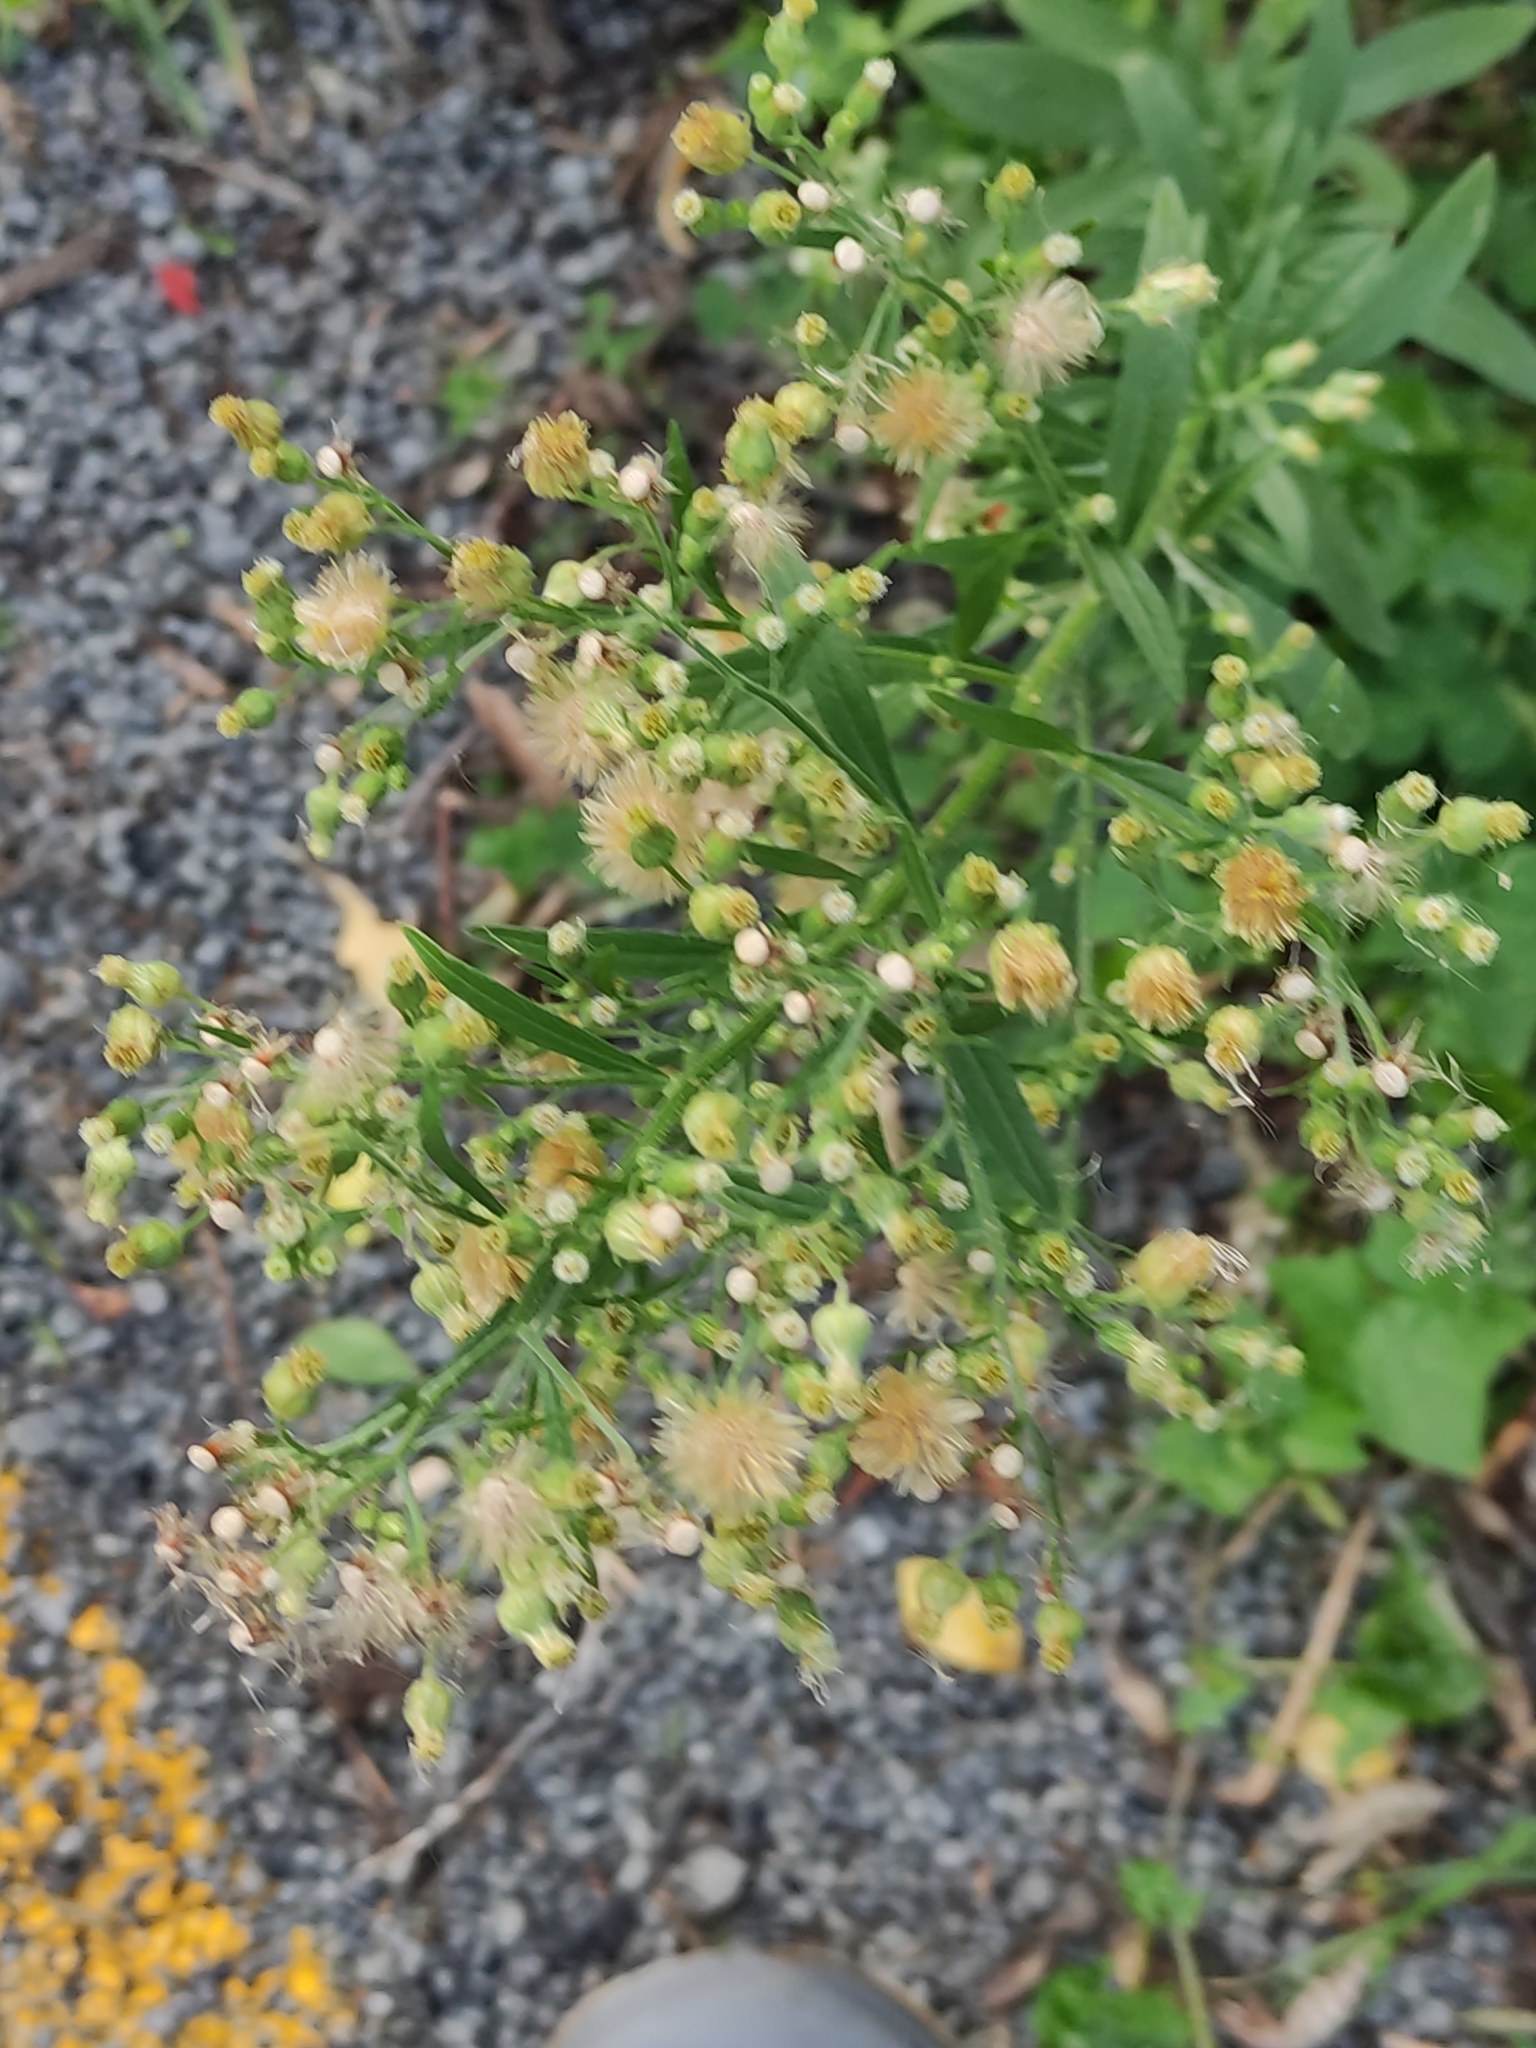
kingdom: Plantae
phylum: Tracheophyta
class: Magnoliopsida
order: Asterales
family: Asteraceae
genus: Erigeron
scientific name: Erigeron sumatrensis
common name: Daisy
